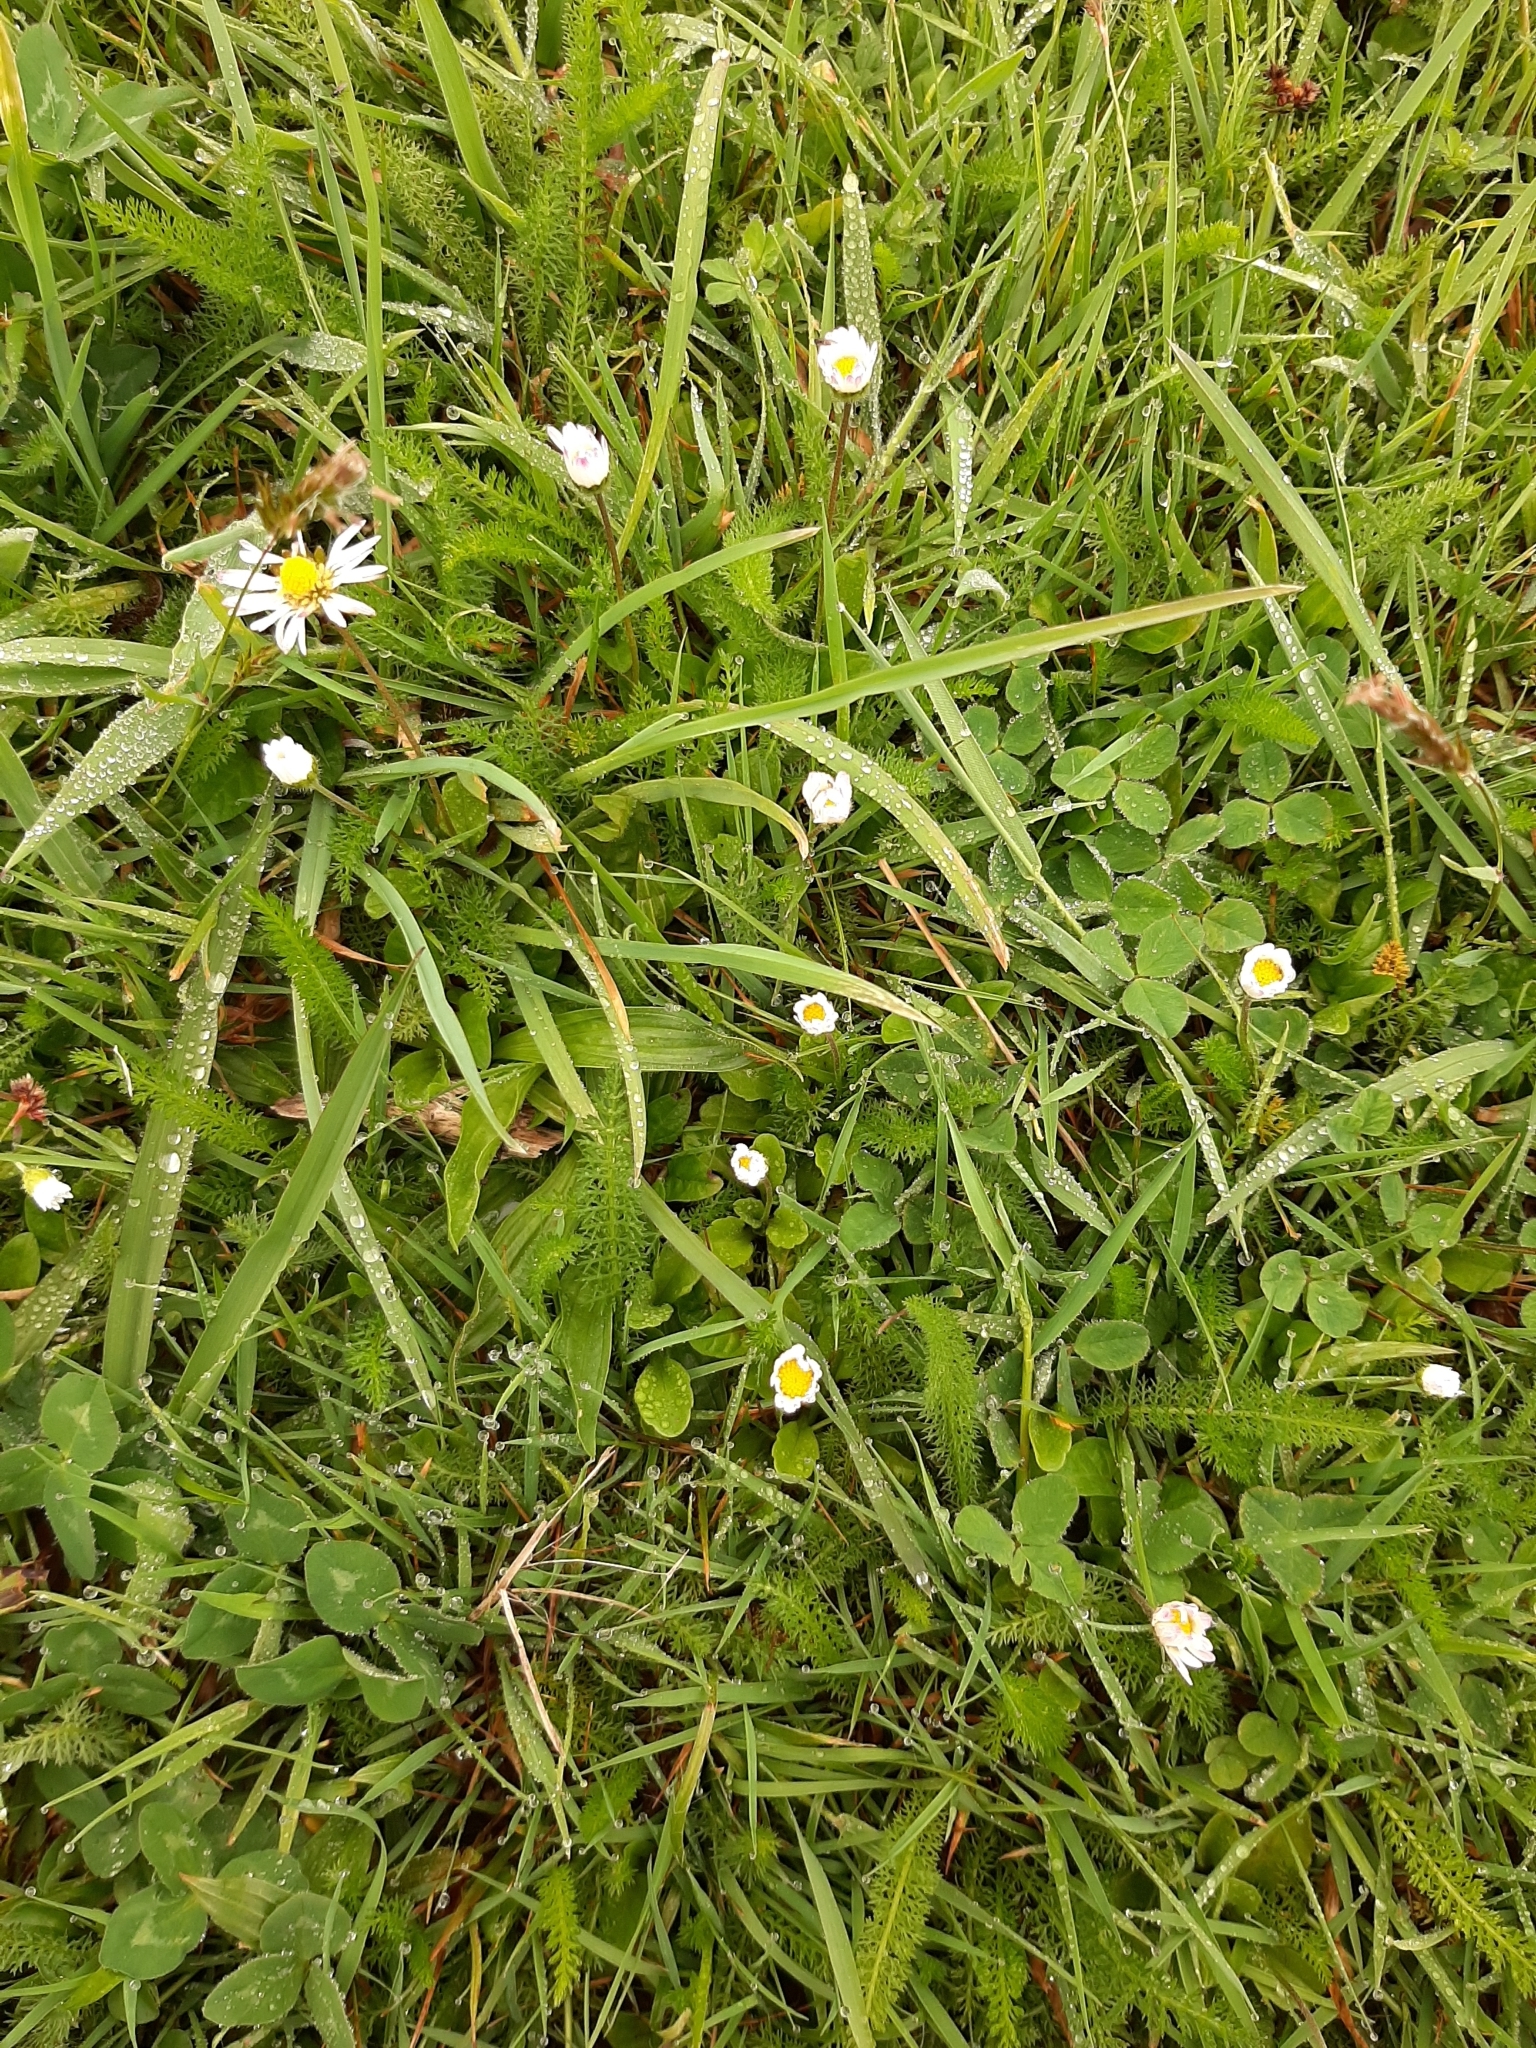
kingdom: Plantae
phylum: Tracheophyta
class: Magnoliopsida
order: Asterales
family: Asteraceae
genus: Bellis
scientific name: Bellis perennis
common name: Lawndaisy
